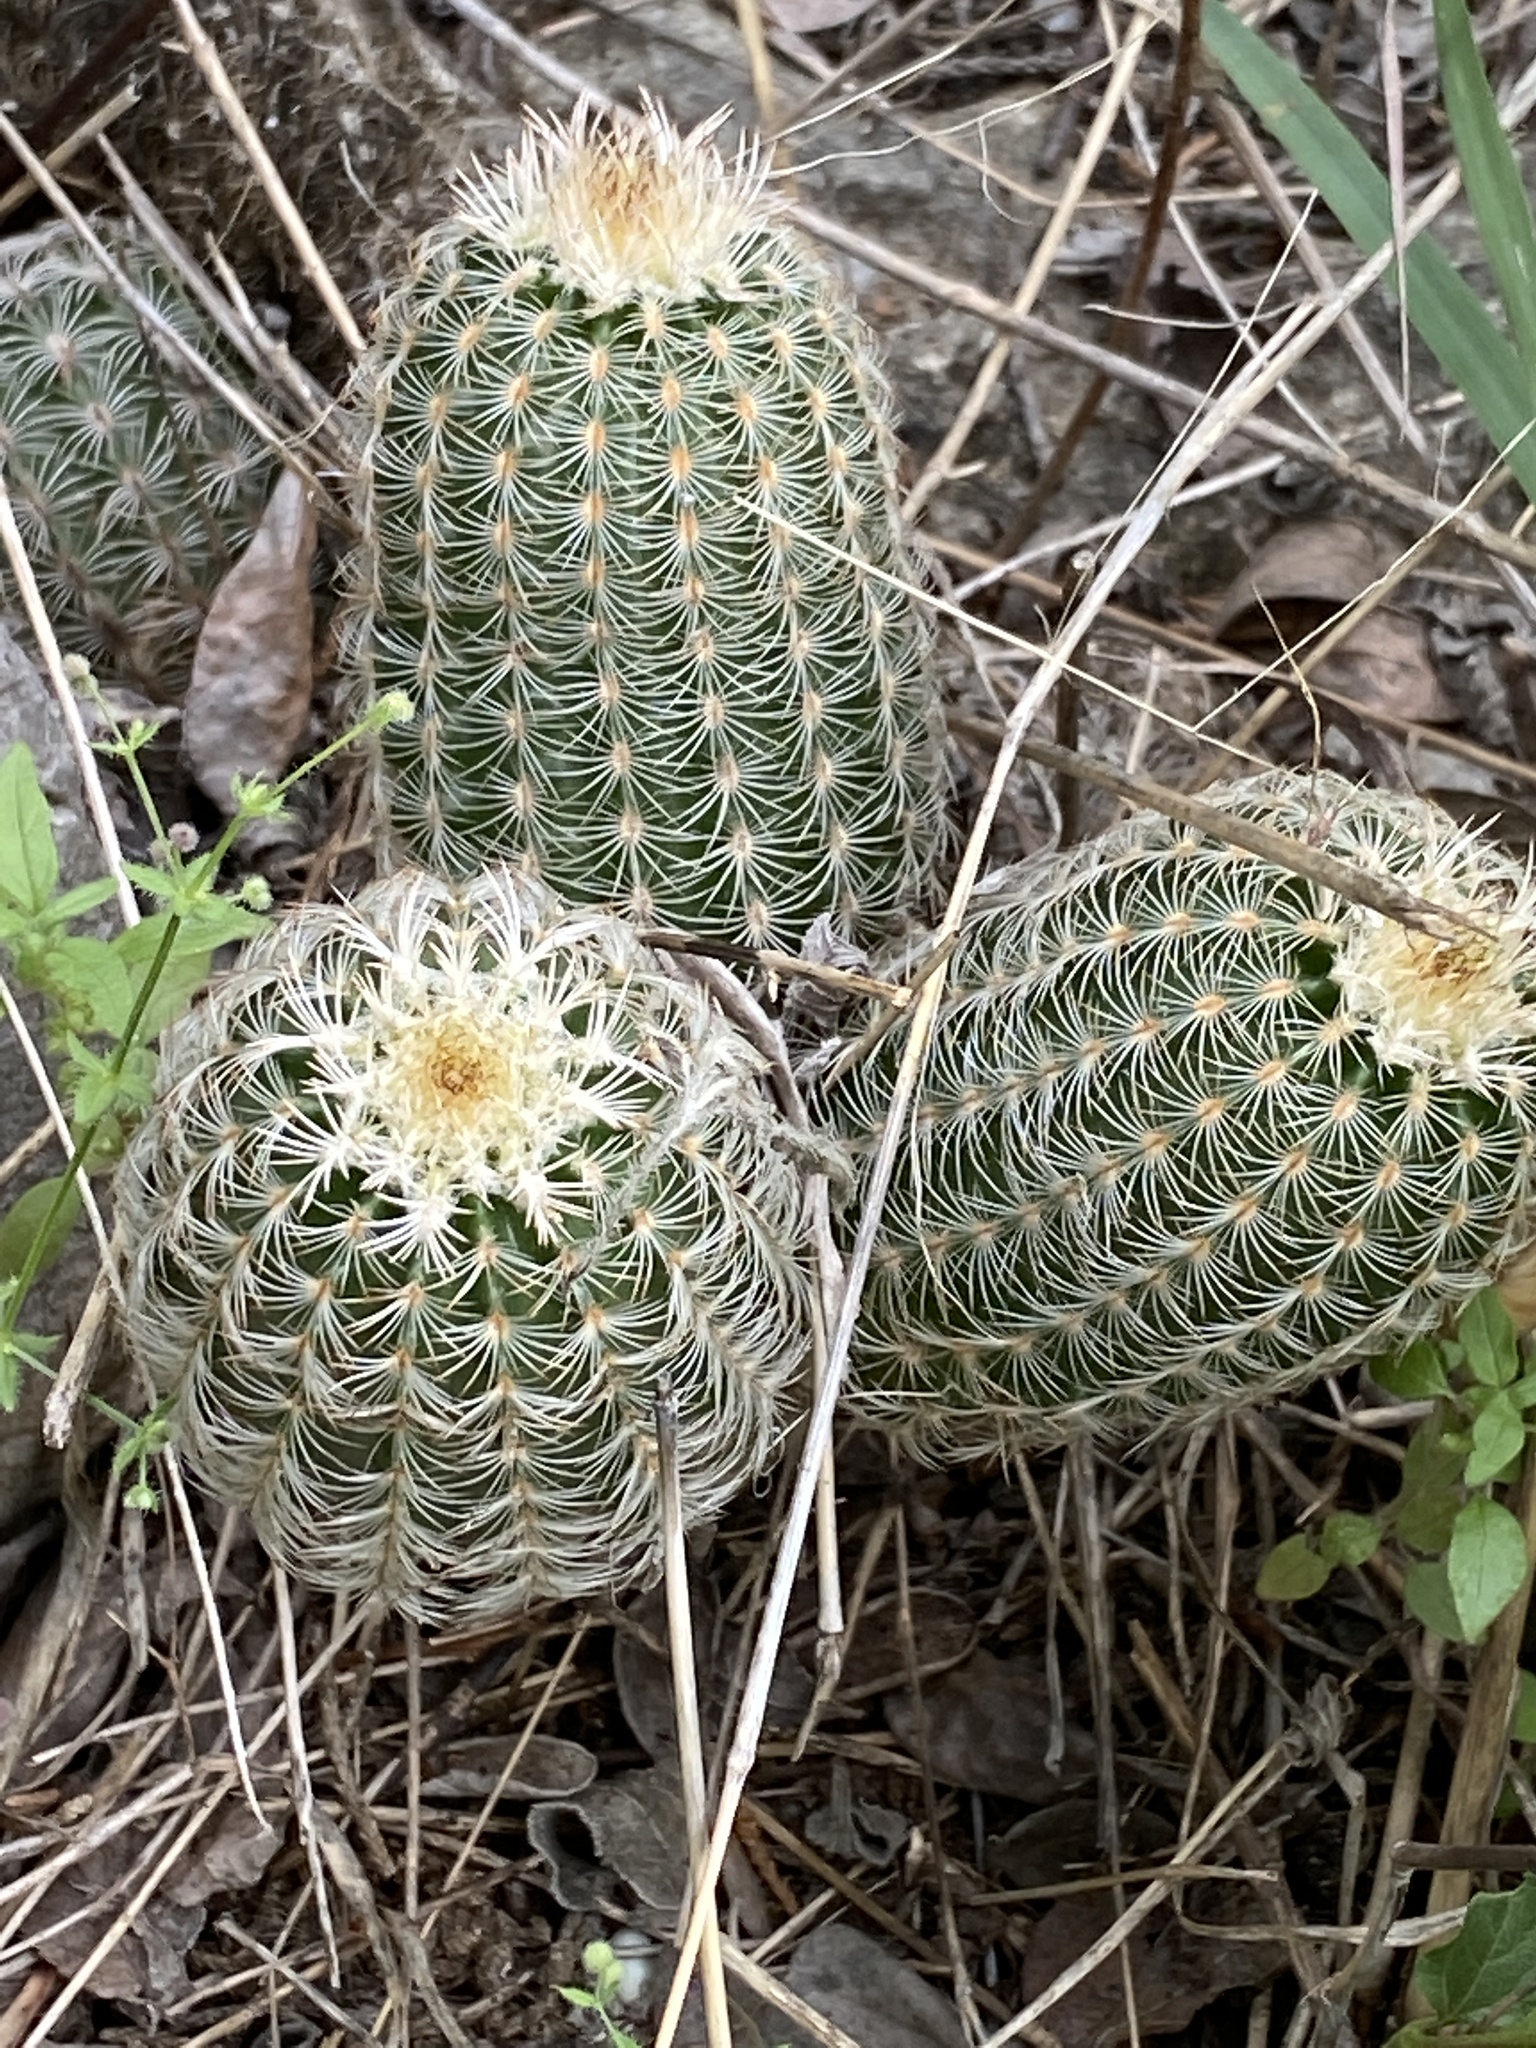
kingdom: Plantae
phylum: Tracheophyta
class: Magnoliopsida
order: Caryophyllales
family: Cactaceae
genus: Echinocereus
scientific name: Echinocereus reichenbachii
